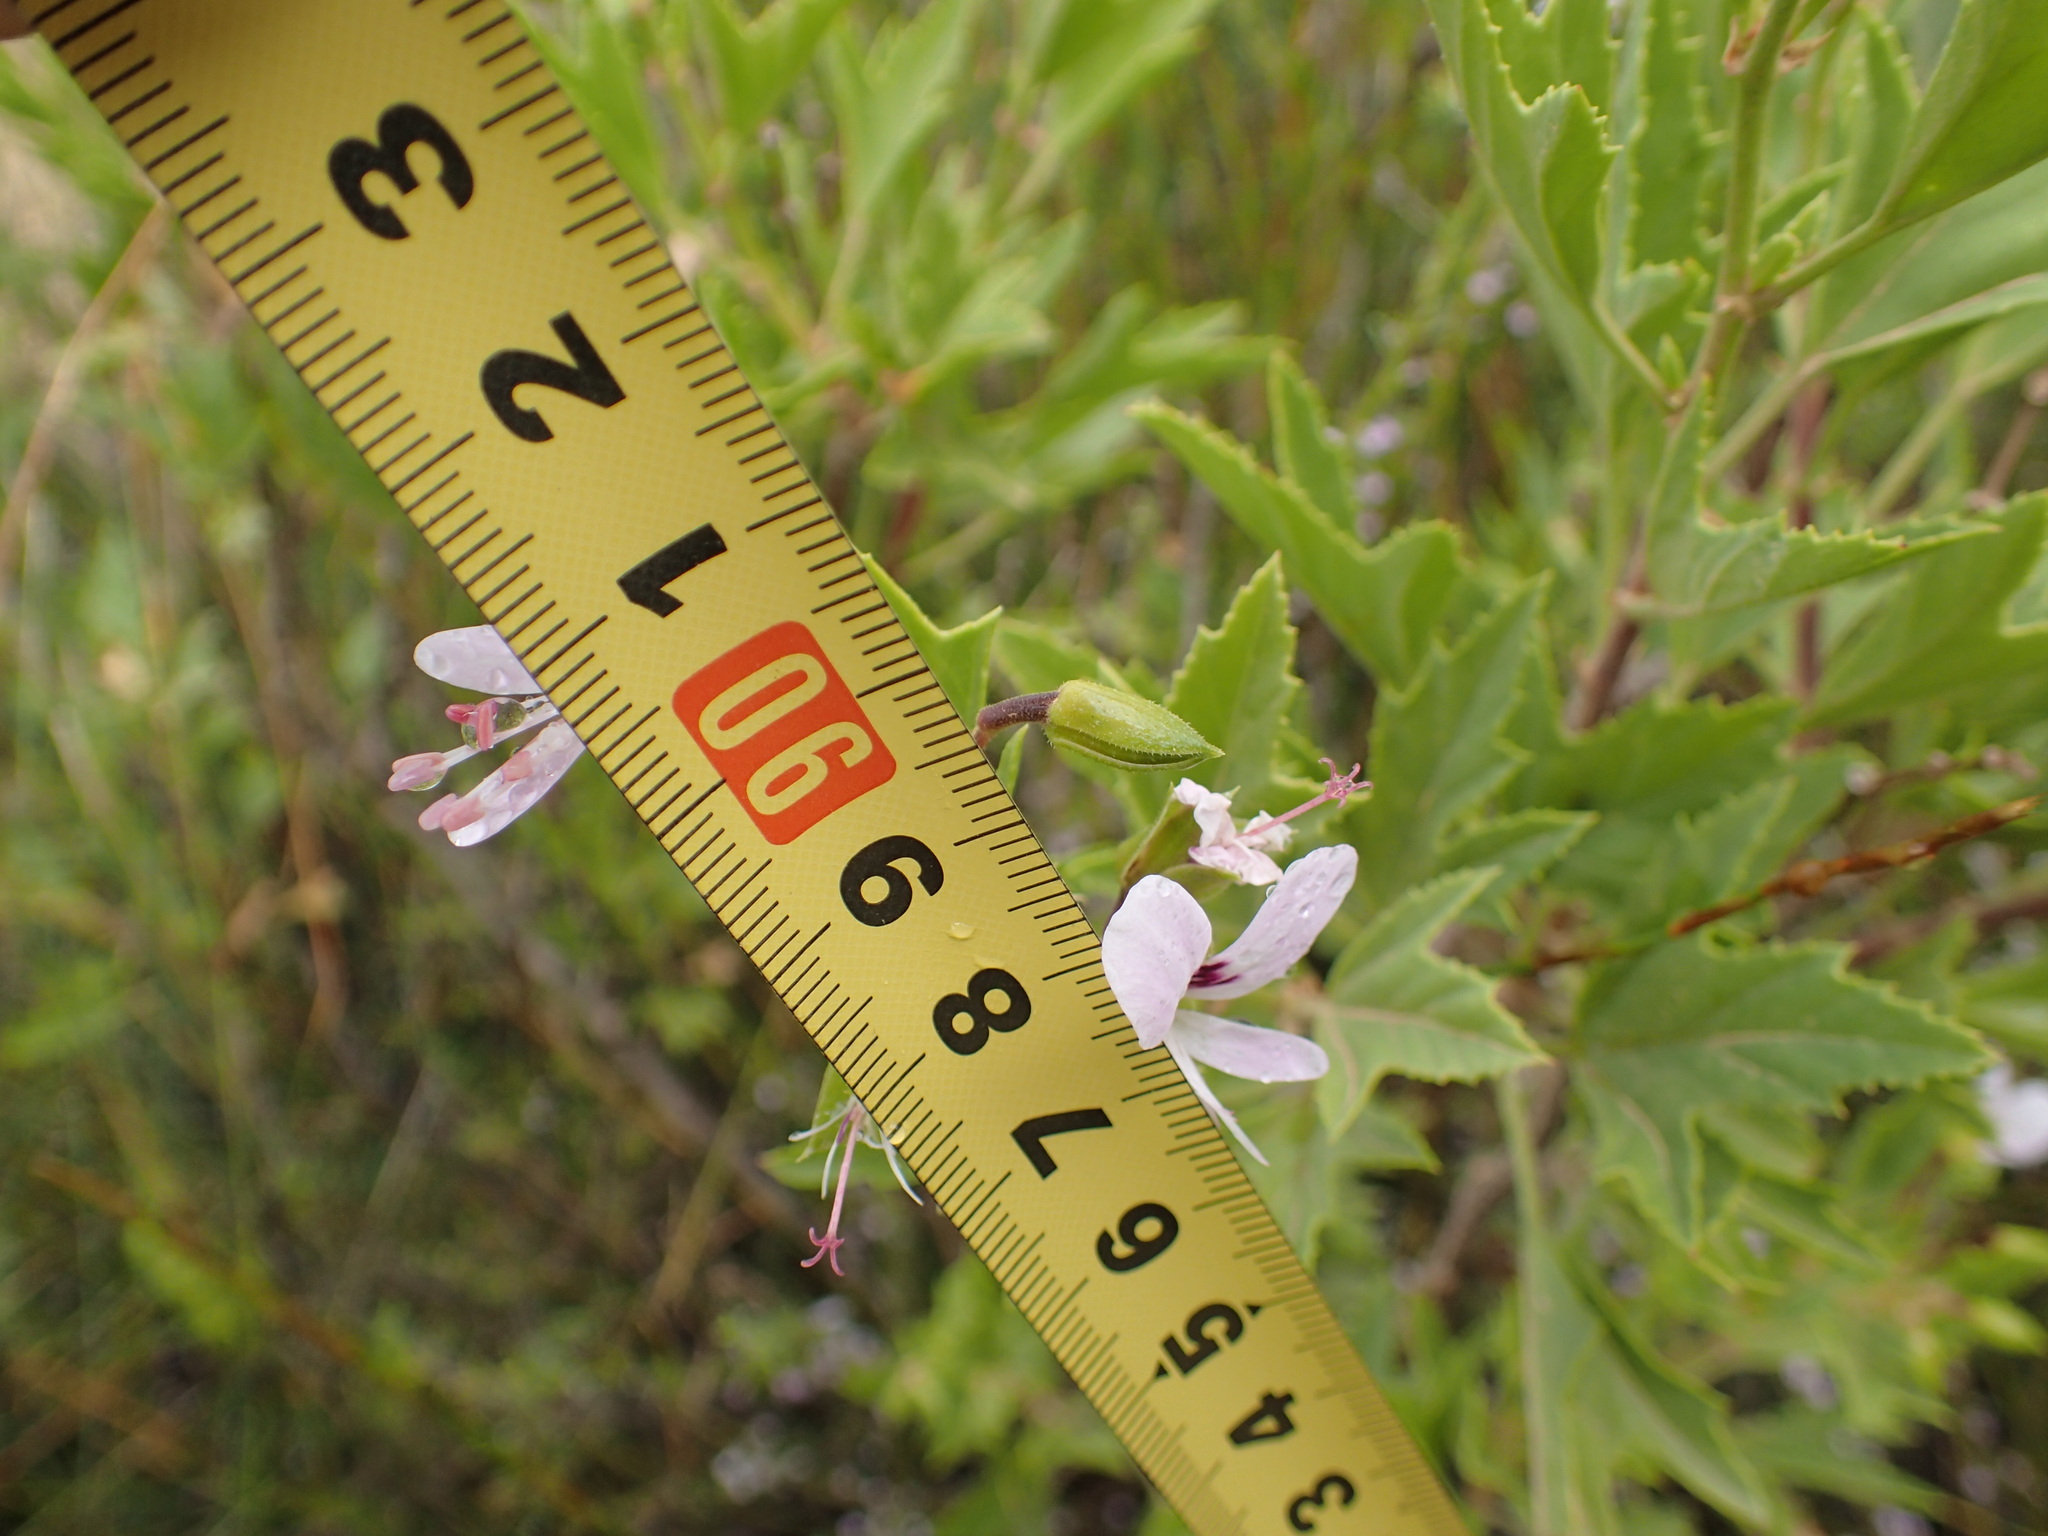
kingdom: Plantae
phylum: Tracheophyta
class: Magnoliopsida
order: Geraniales
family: Geraniaceae
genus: Pelargonium
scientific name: Pelargonium scabrum
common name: Apricot geranium
